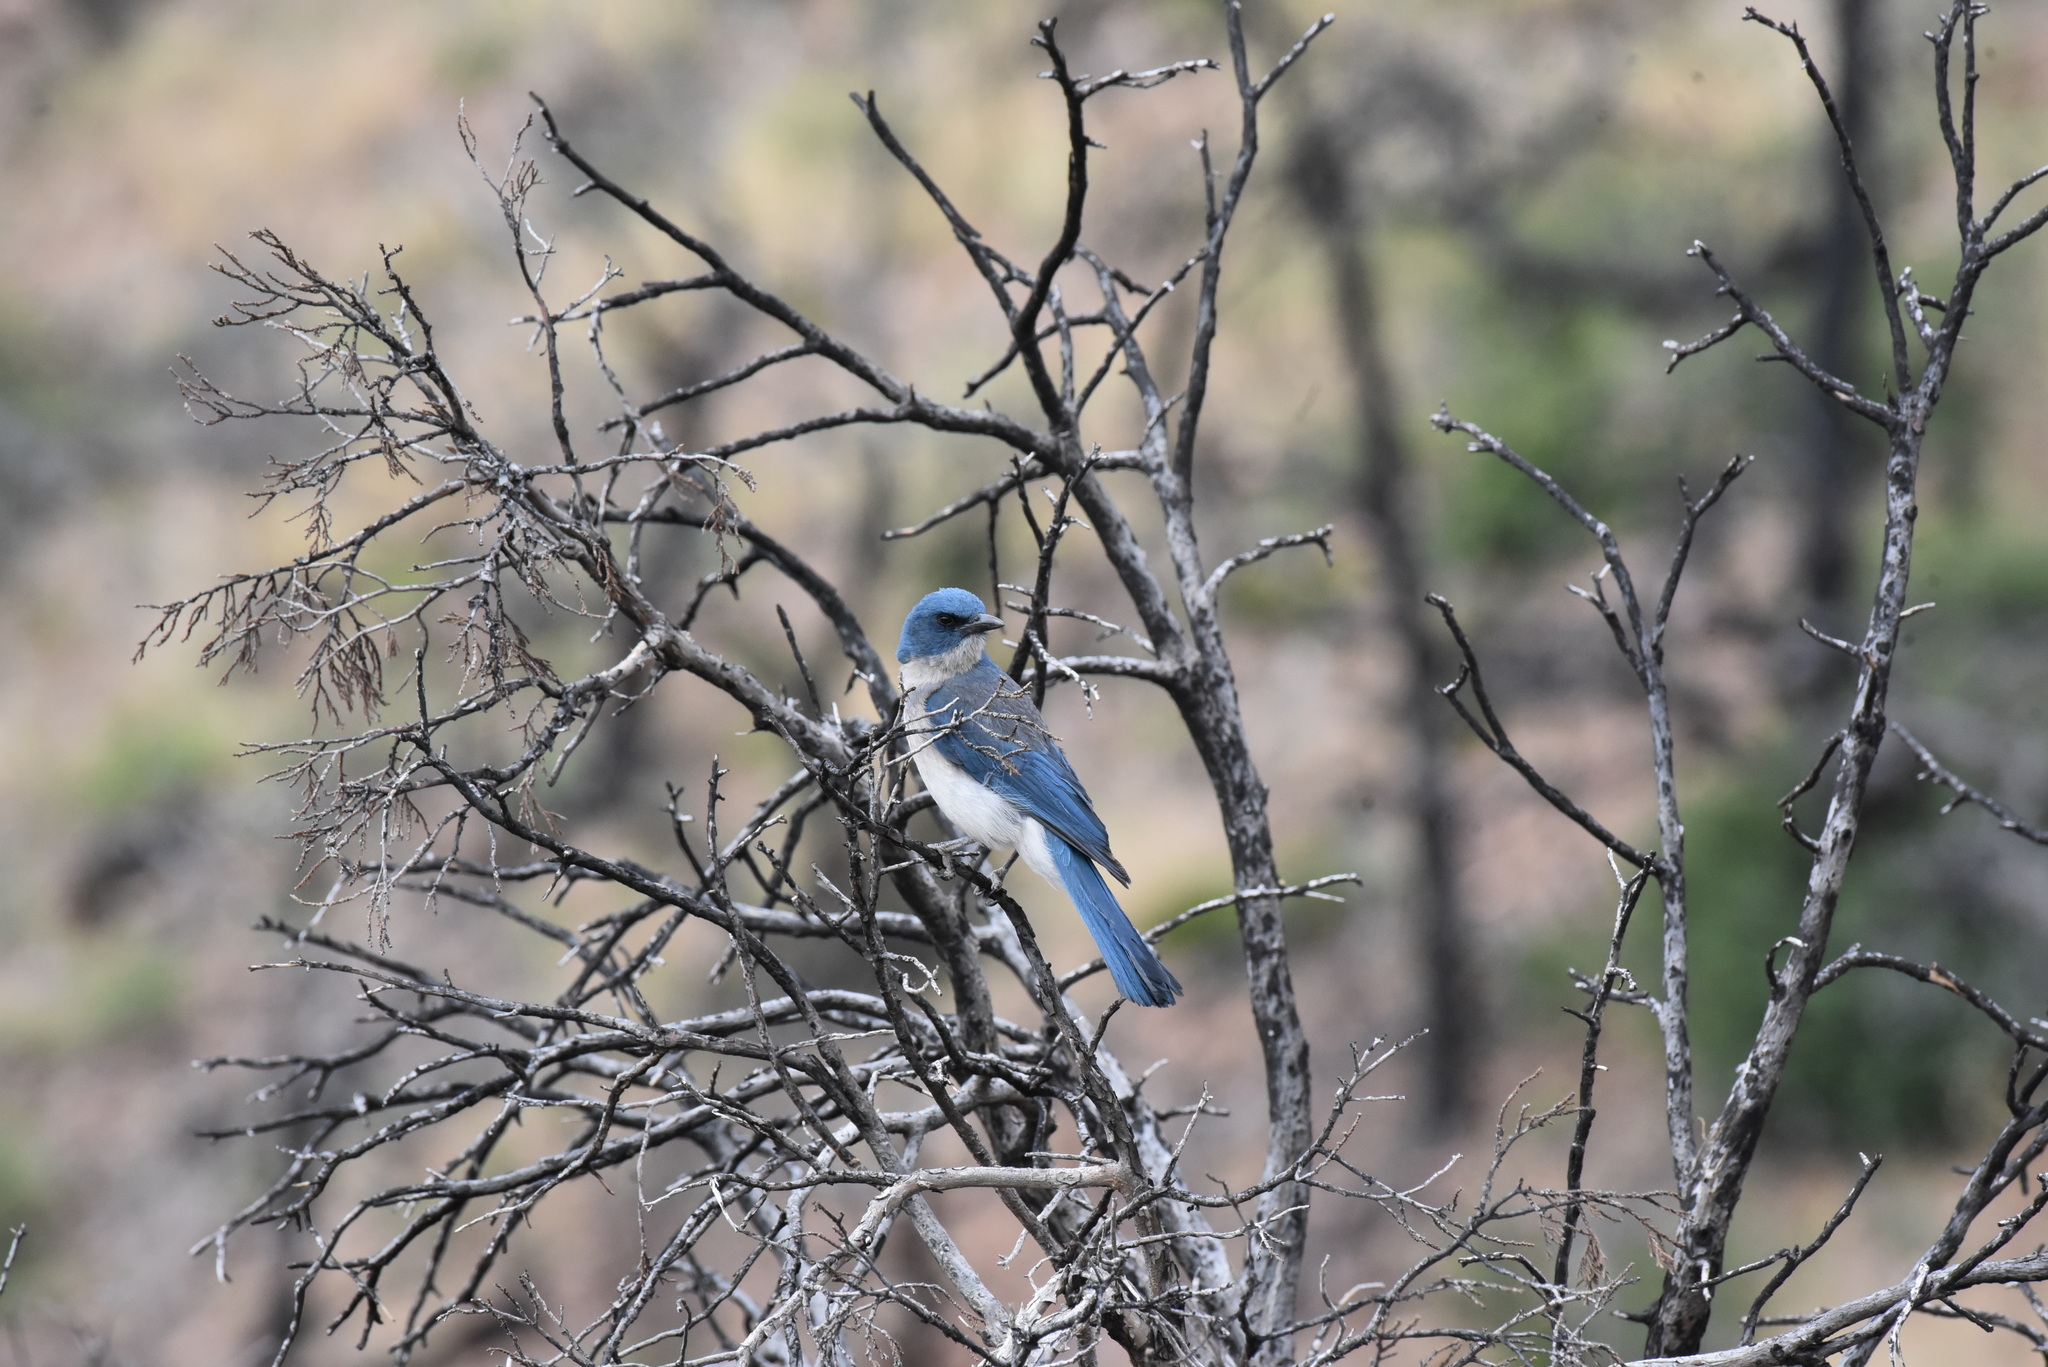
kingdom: Animalia
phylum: Chordata
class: Aves
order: Passeriformes
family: Corvidae
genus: Aphelocoma
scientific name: Aphelocoma wollweberi
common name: Mexican jay
